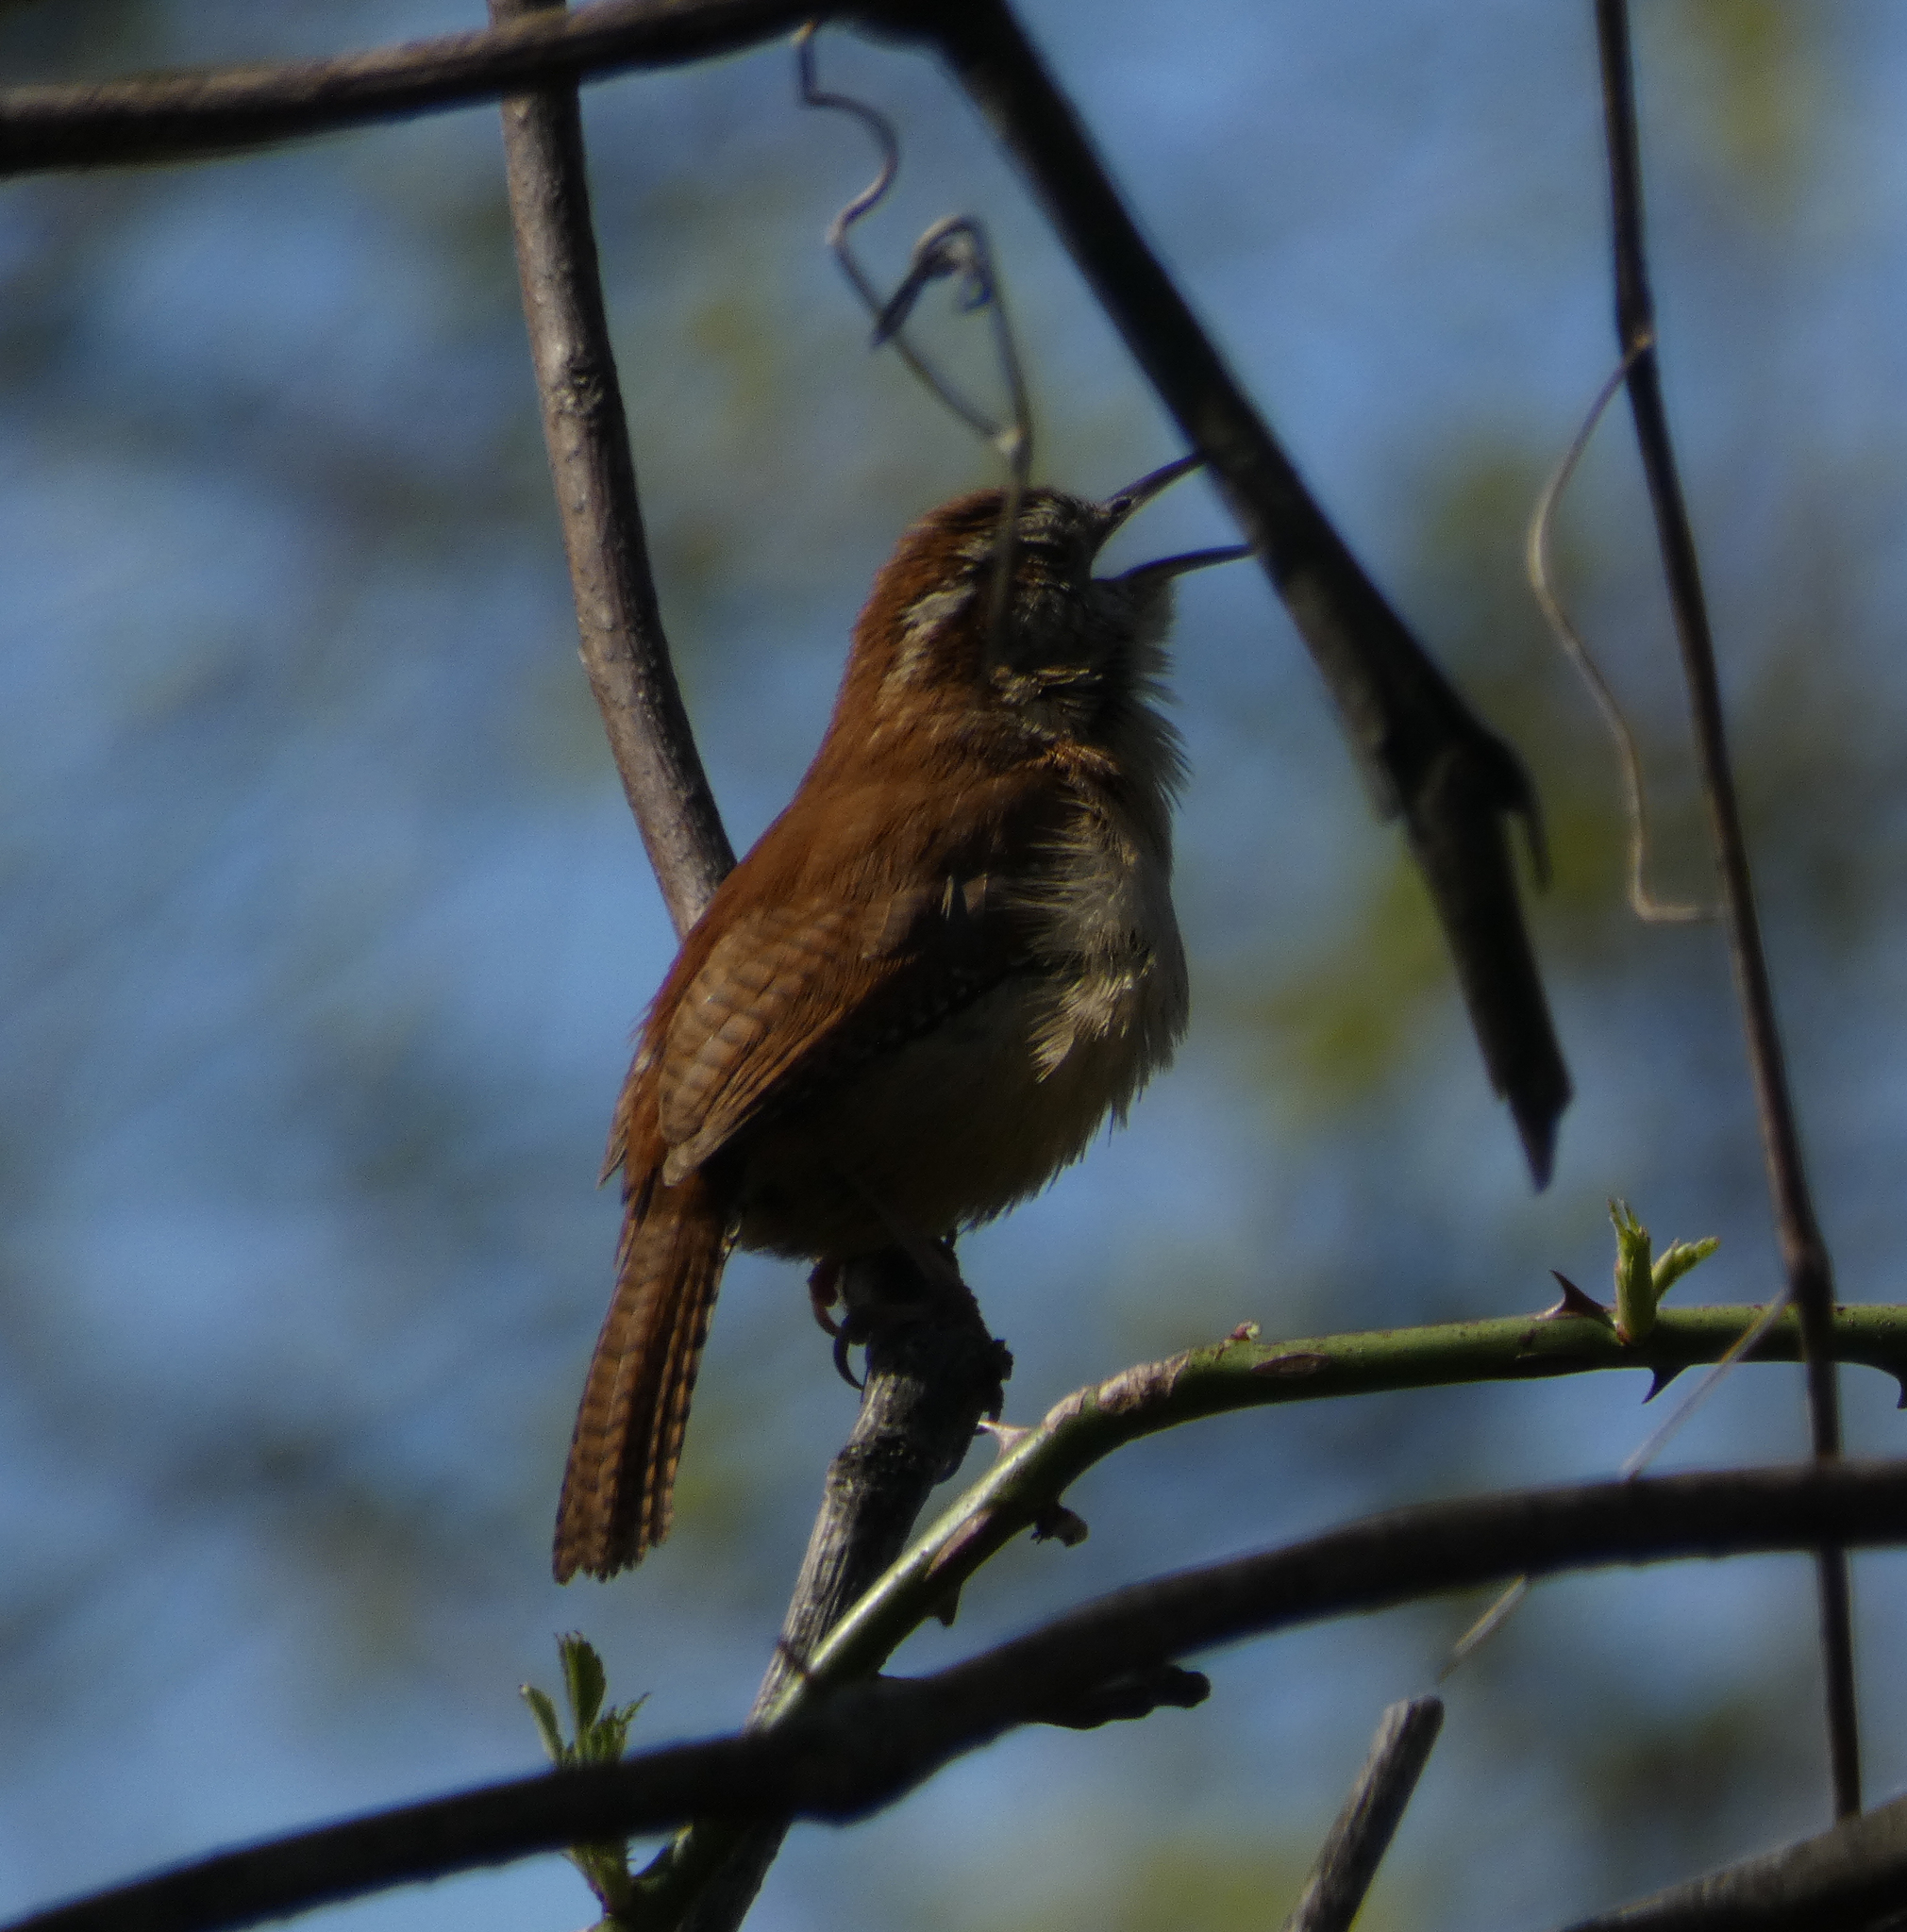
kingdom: Animalia
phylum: Chordata
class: Aves
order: Passeriformes
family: Troglodytidae
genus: Thryothorus
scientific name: Thryothorus ludovicianus
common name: Carolina wren
